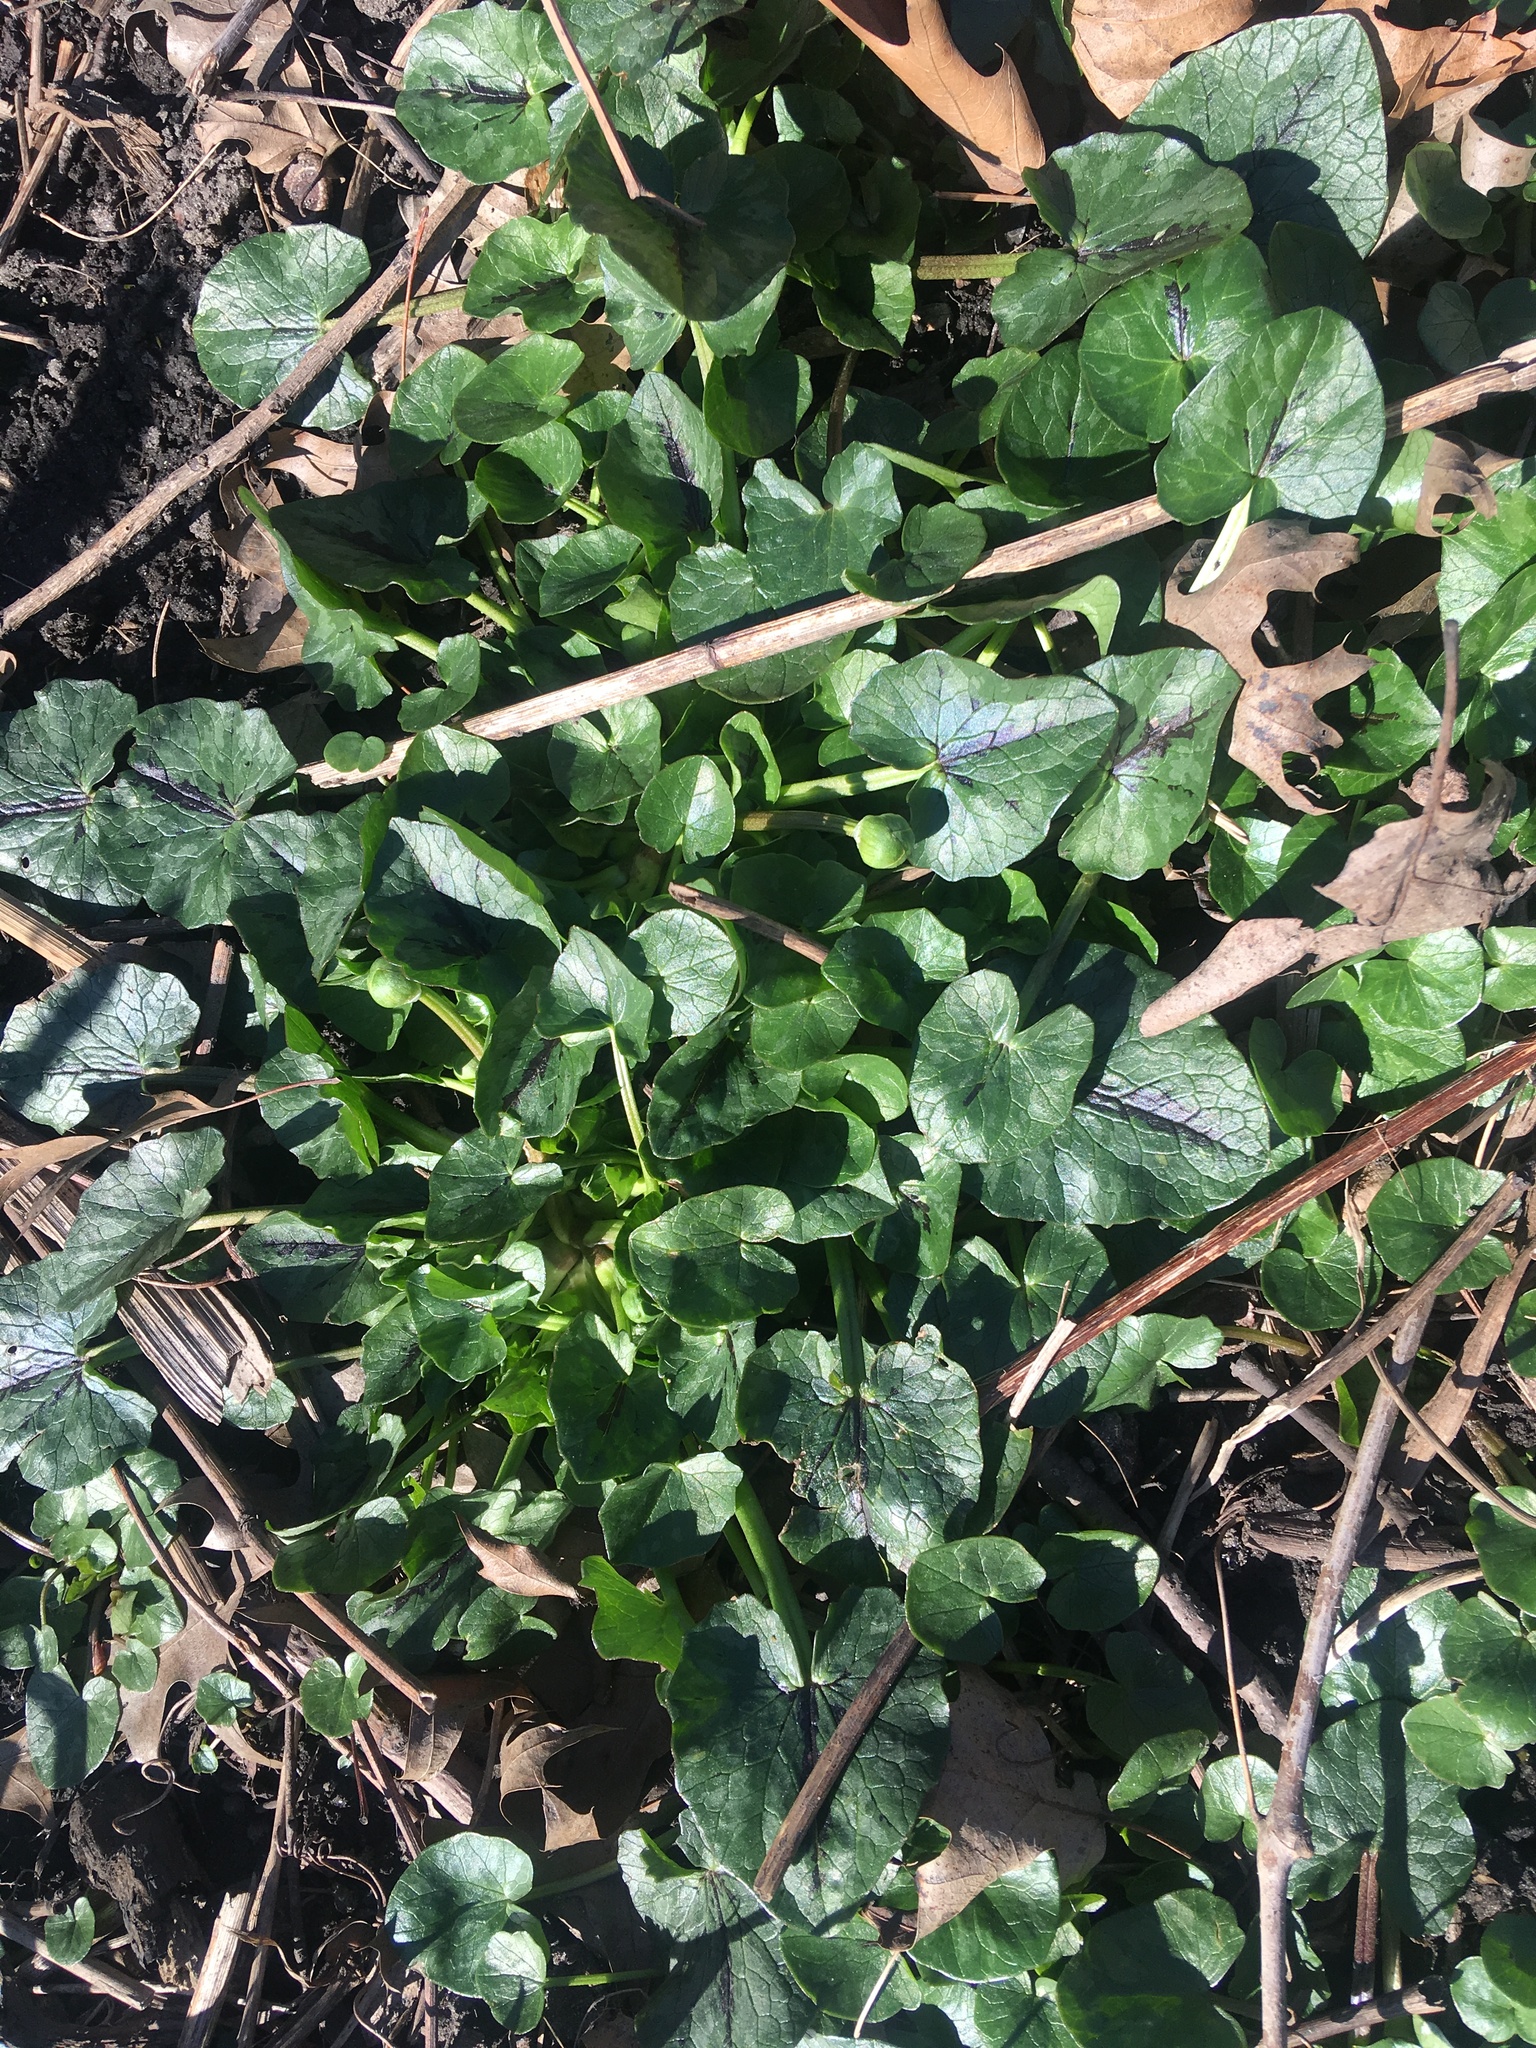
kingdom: Plantae
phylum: Tracheophyta
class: Magnoliopsida
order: Ranunculales
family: Ranunculaceae
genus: Ficaria
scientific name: Ficaria verna
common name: Lesser celandine
